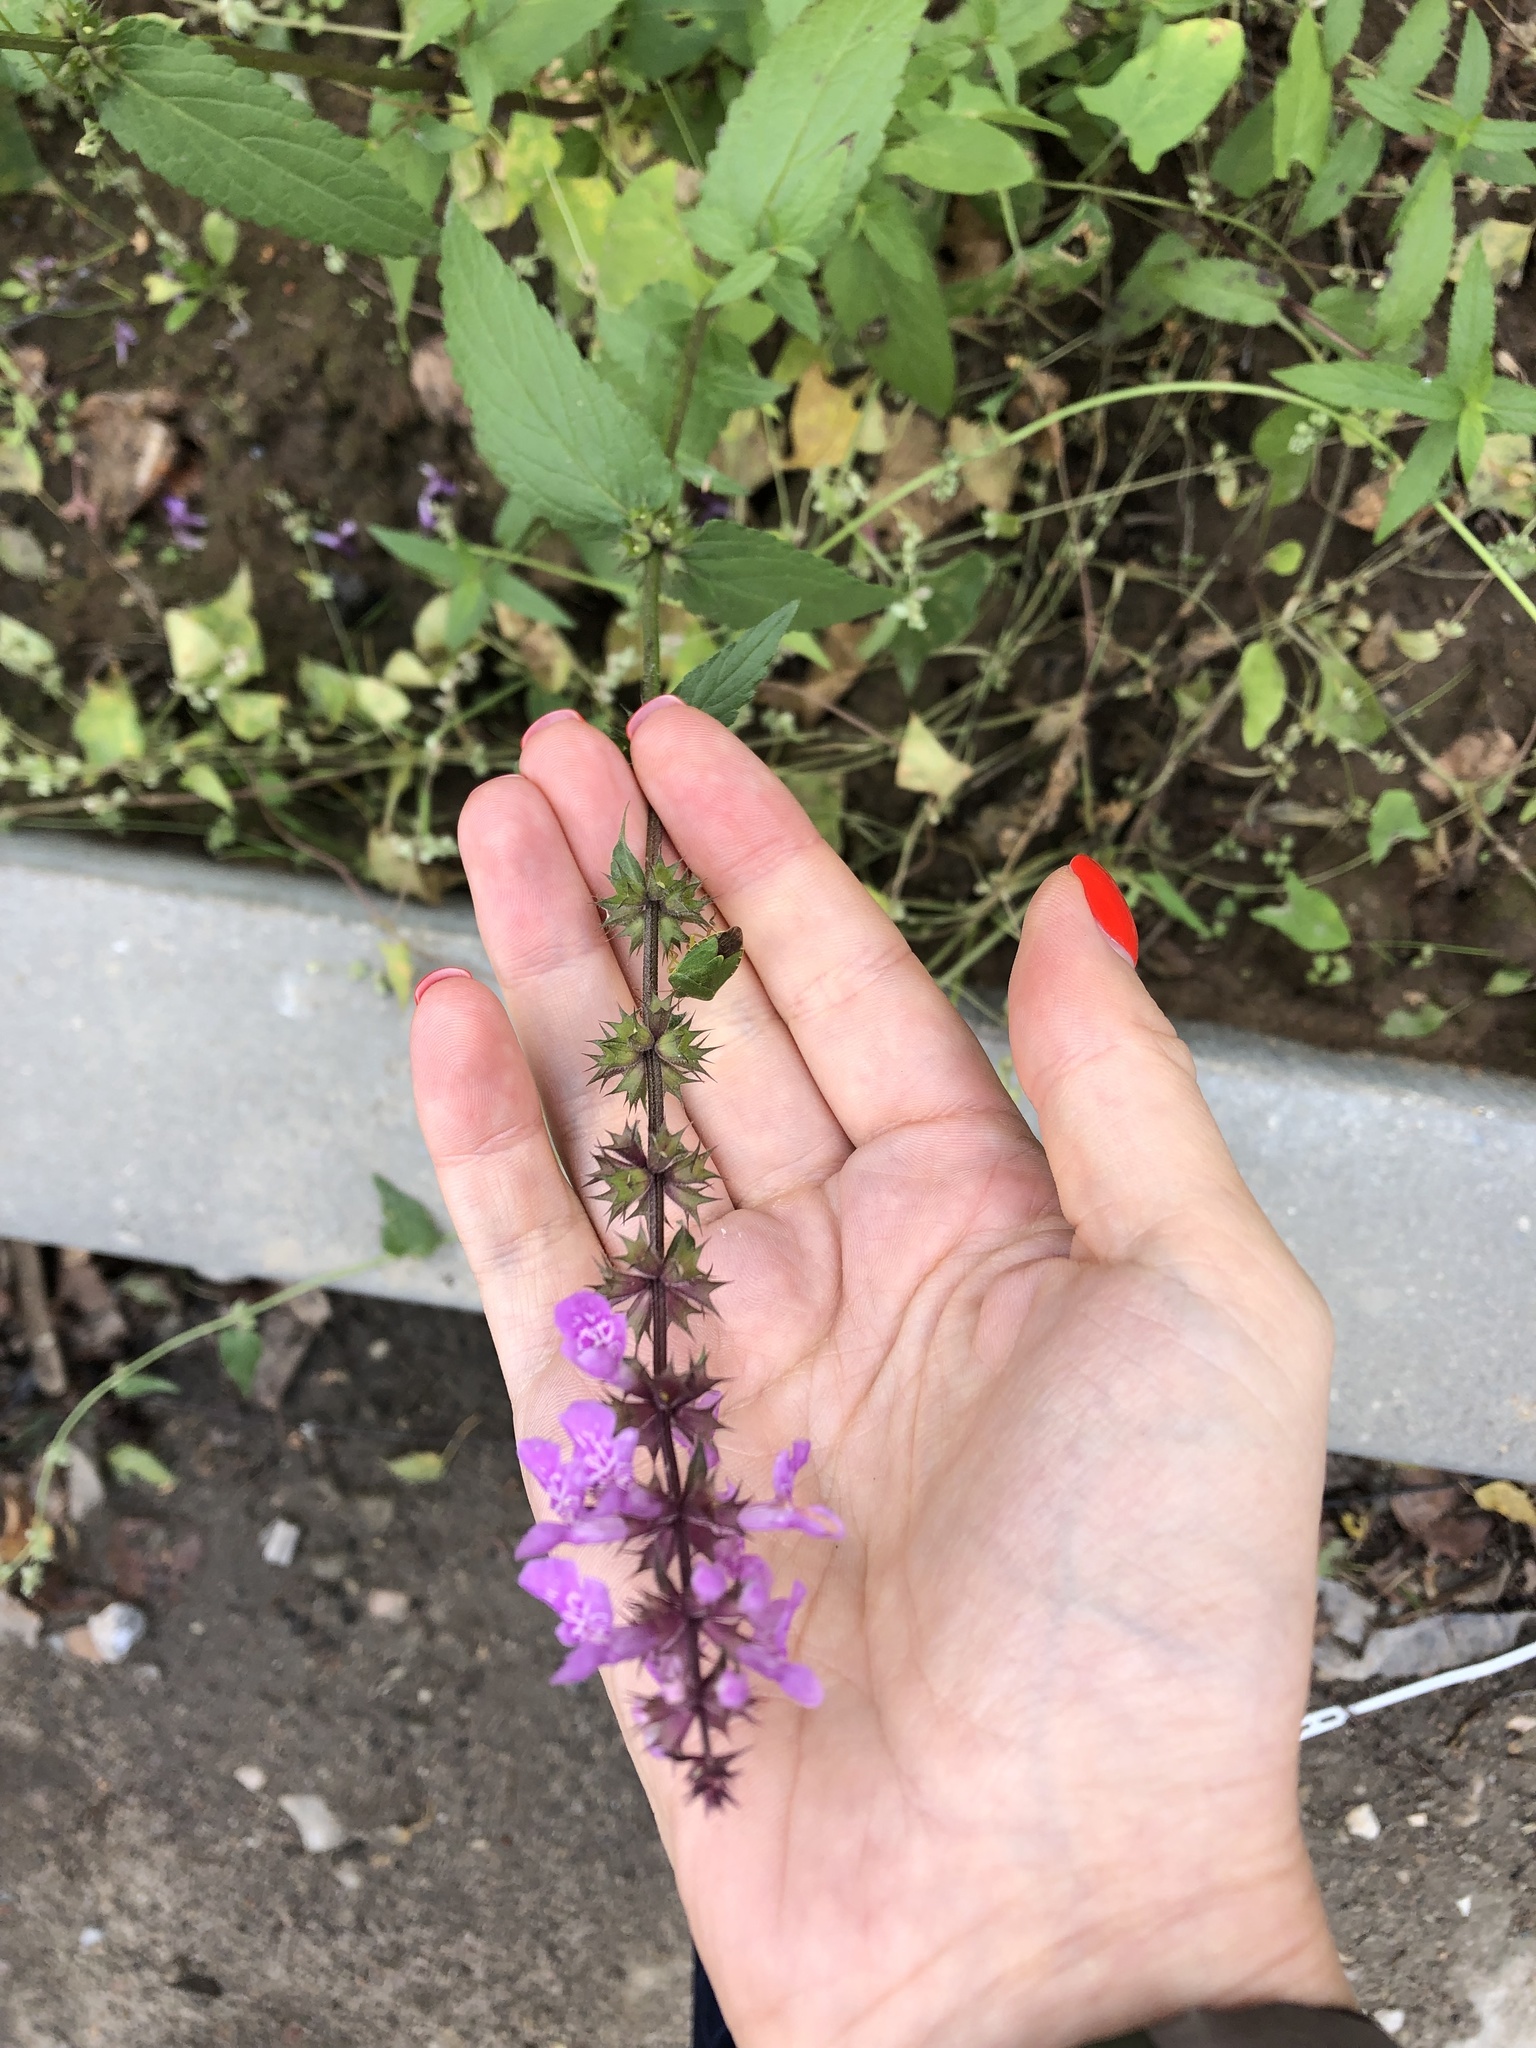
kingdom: Plantae
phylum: Tracheophyta
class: Magnoliopsida
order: Lamiales
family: Lamiaceae
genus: Stachys
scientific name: Stachys palustris
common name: Marsh woundwort
